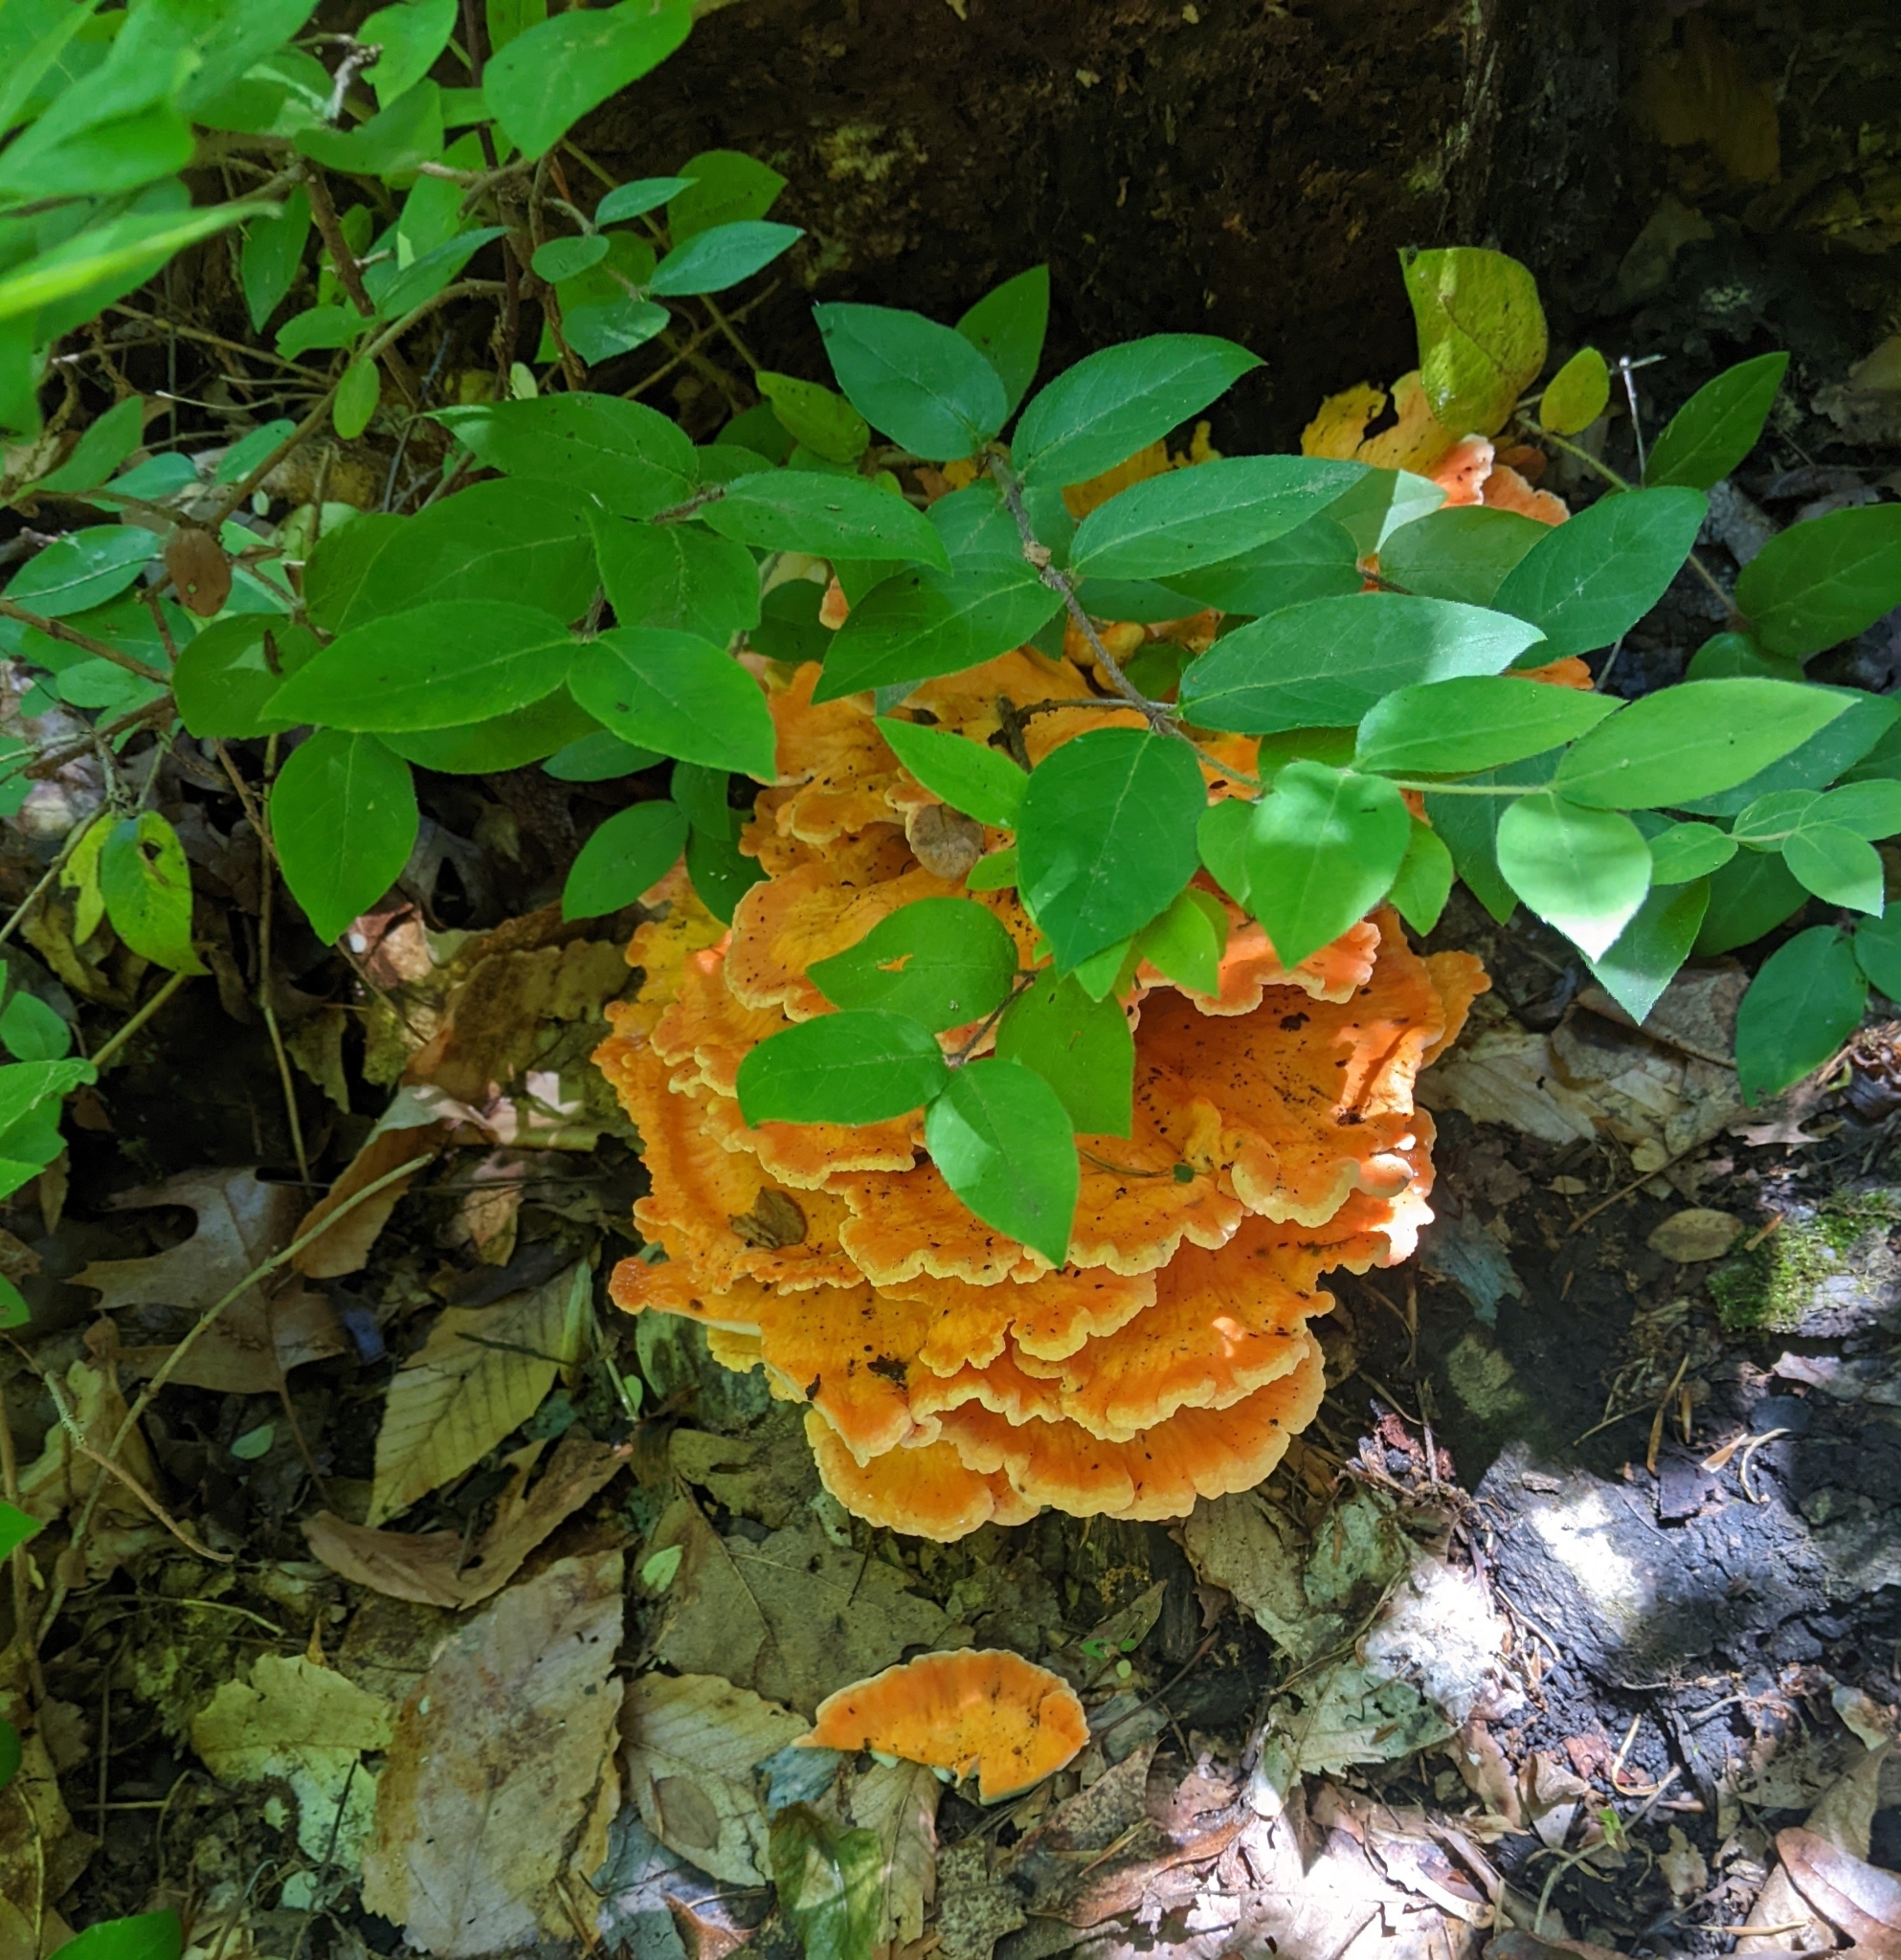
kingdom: Fungi
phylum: Basidiomycota
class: Agaricomycetes
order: Polyporales
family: Laetiporaceae
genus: Laetiporus
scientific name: Laetiporus sulphureus
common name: Chicken of the woods
